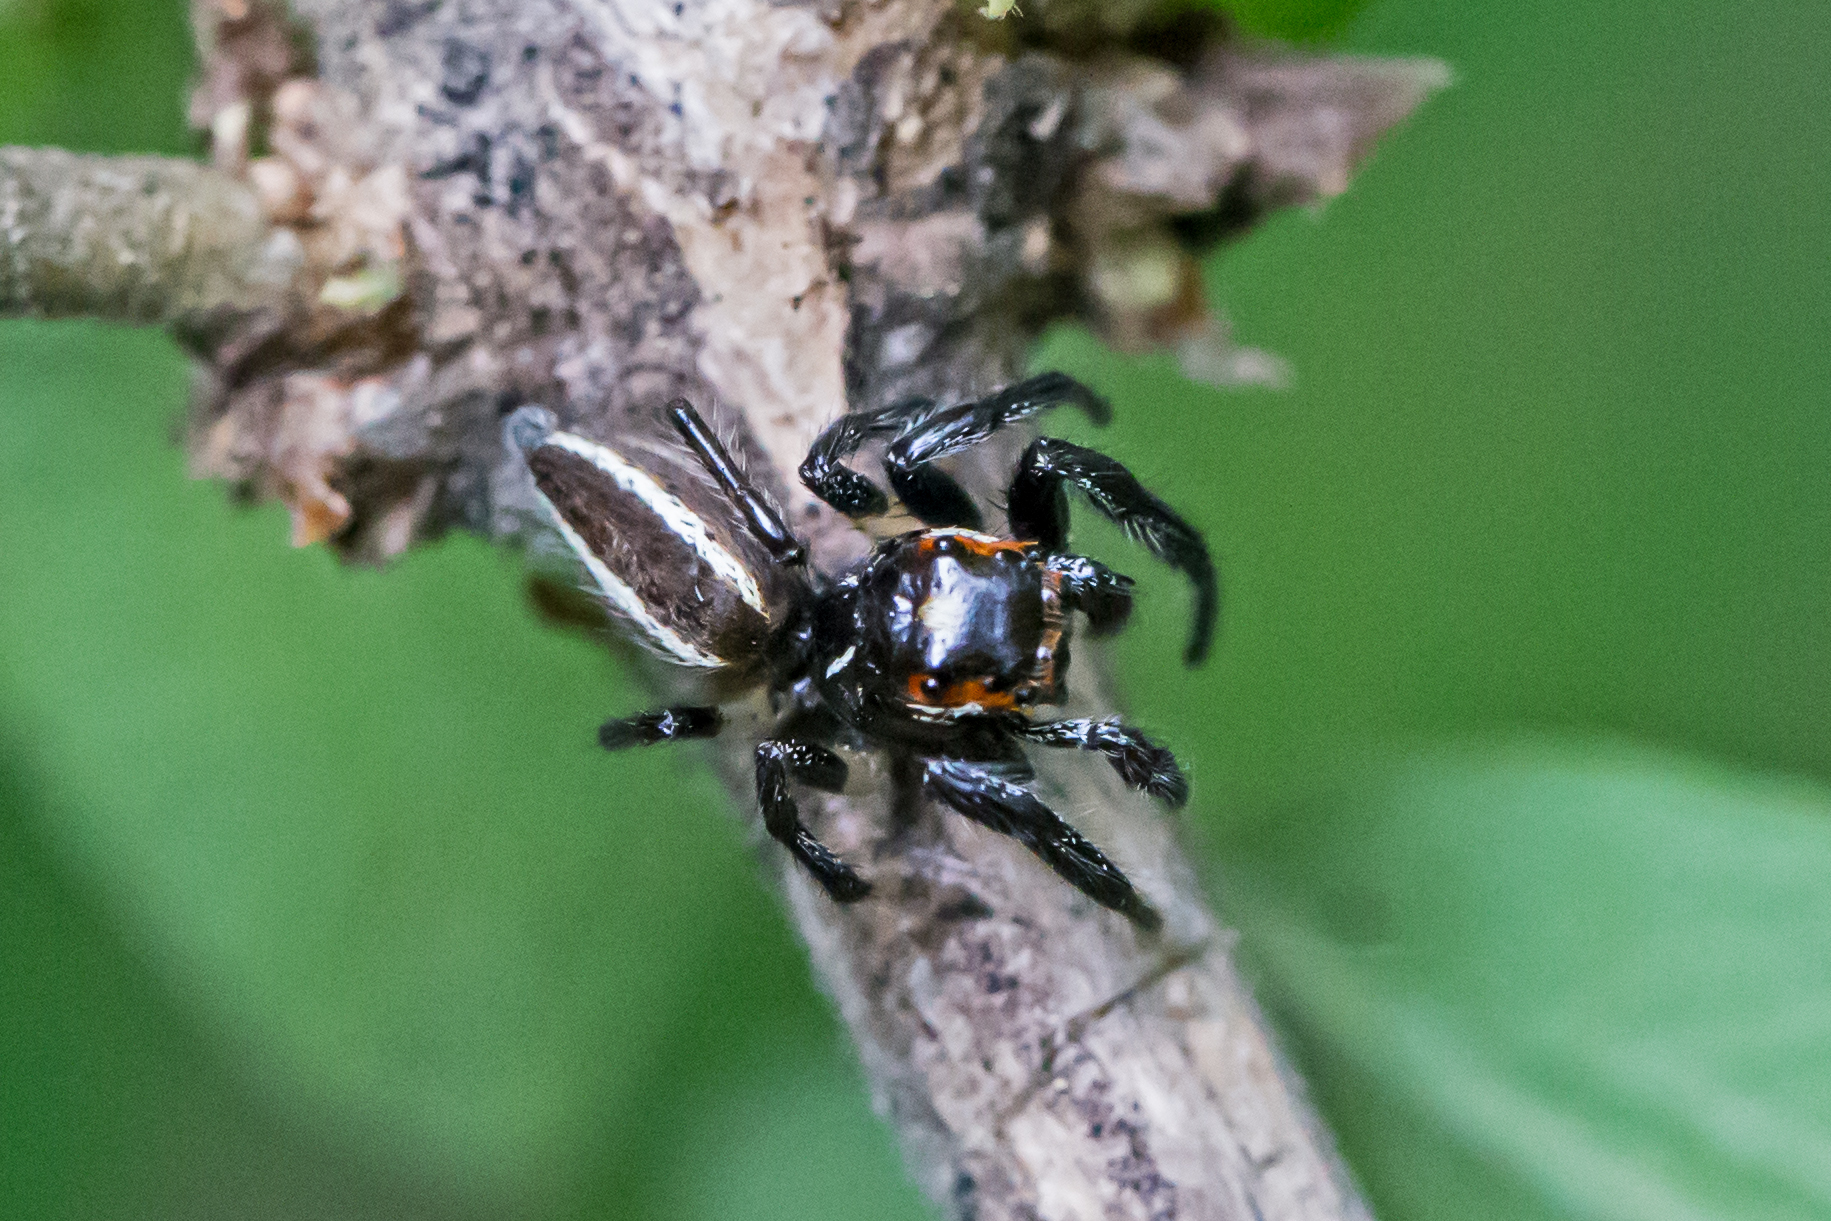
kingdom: Animalia
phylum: Arthropoda
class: Arachnida
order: Araneae
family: Salticidae
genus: Colonus
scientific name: Colonus sylvanus
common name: Jumping spiders
